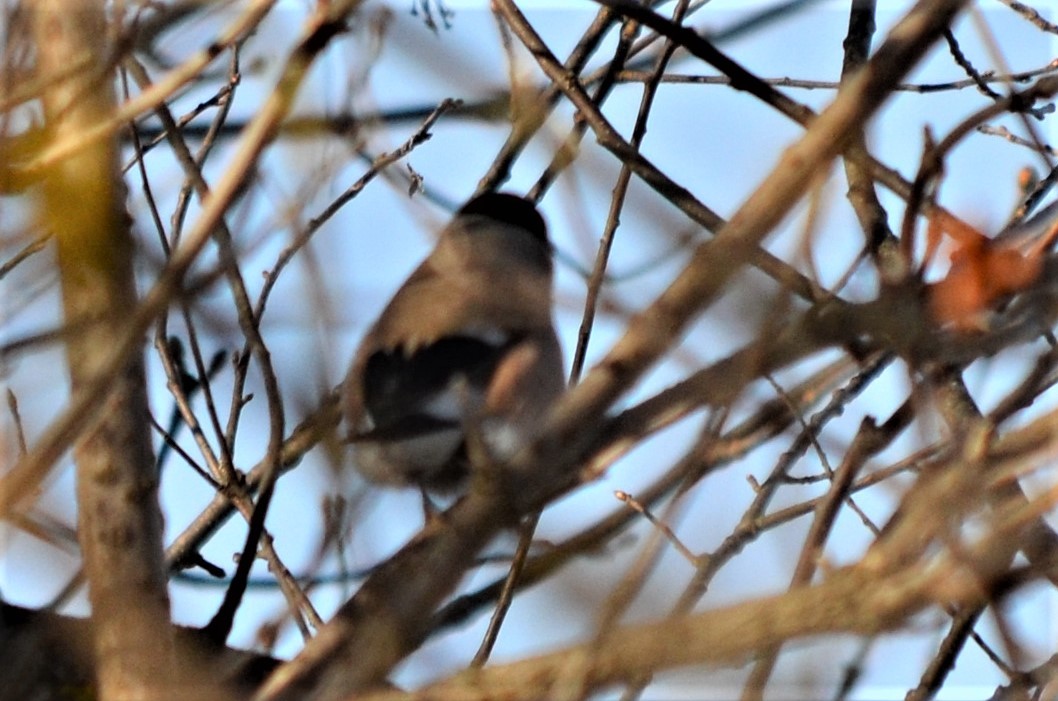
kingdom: Animalia
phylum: Chordata
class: Aves
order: Passeriformes
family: Fringillidae
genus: Pyrrhula
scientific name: Pyrrhula pyrrhula
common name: Eurasian bullfinch
